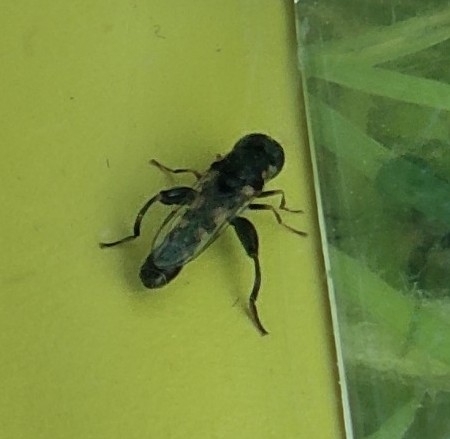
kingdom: Animalia
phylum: Arthropoda
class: Insecta
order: Diptera
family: Syrphidae
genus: Syritta
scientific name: Syritta pipiens
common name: Hover fly
